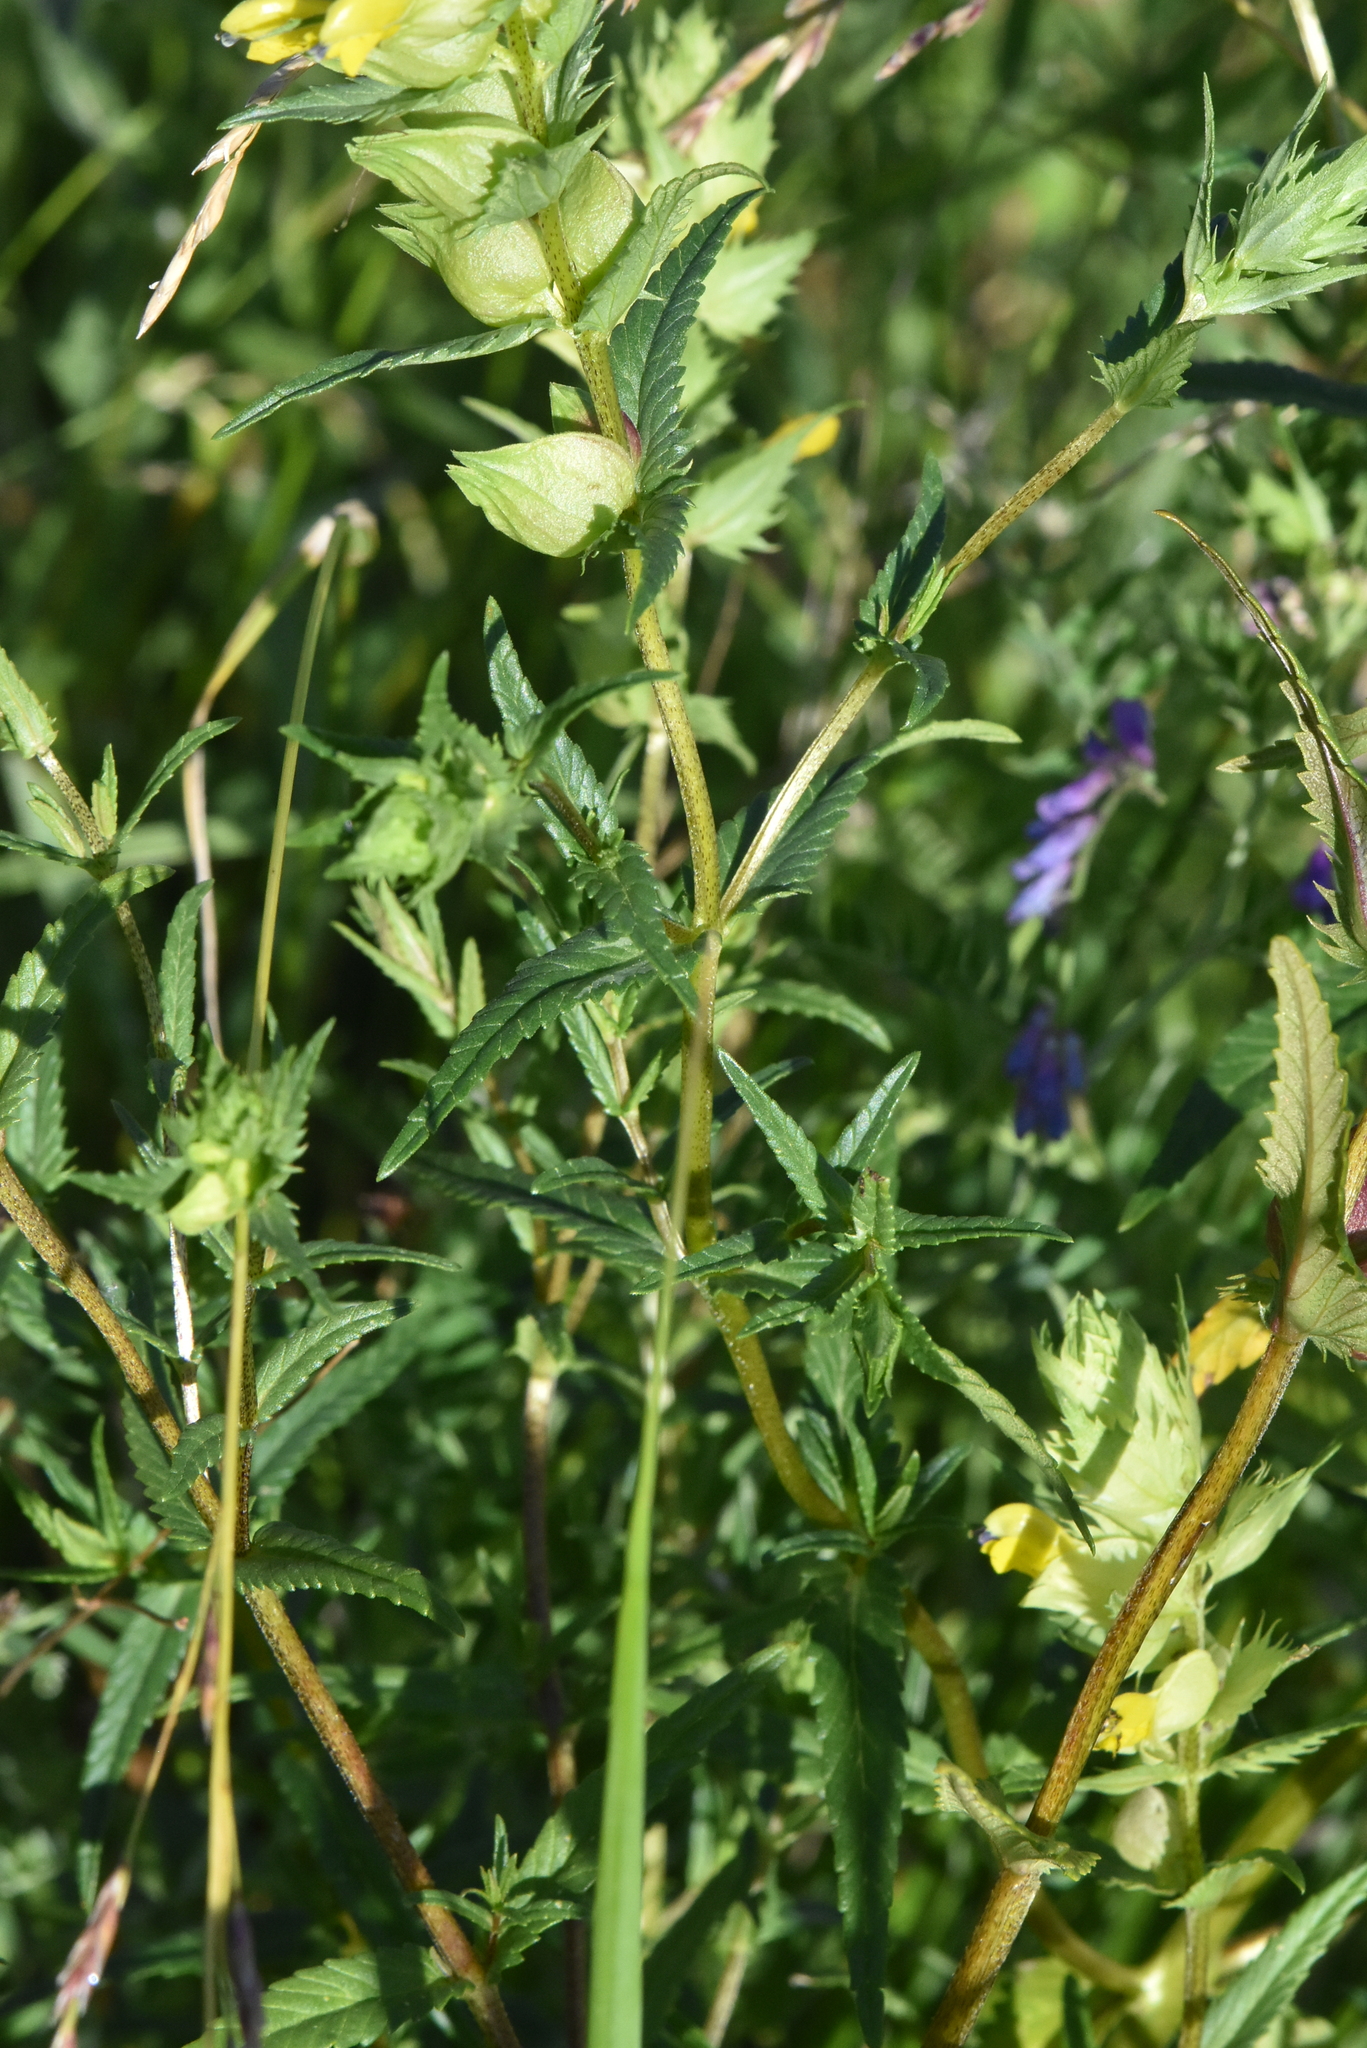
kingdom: Plantae
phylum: Tracheophyta
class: Magnoliopsida
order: Lamiales
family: Orobanchaceae
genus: Rhinanthus
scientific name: Rhinanthus serotinus
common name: Late-flowering yellow rattle
